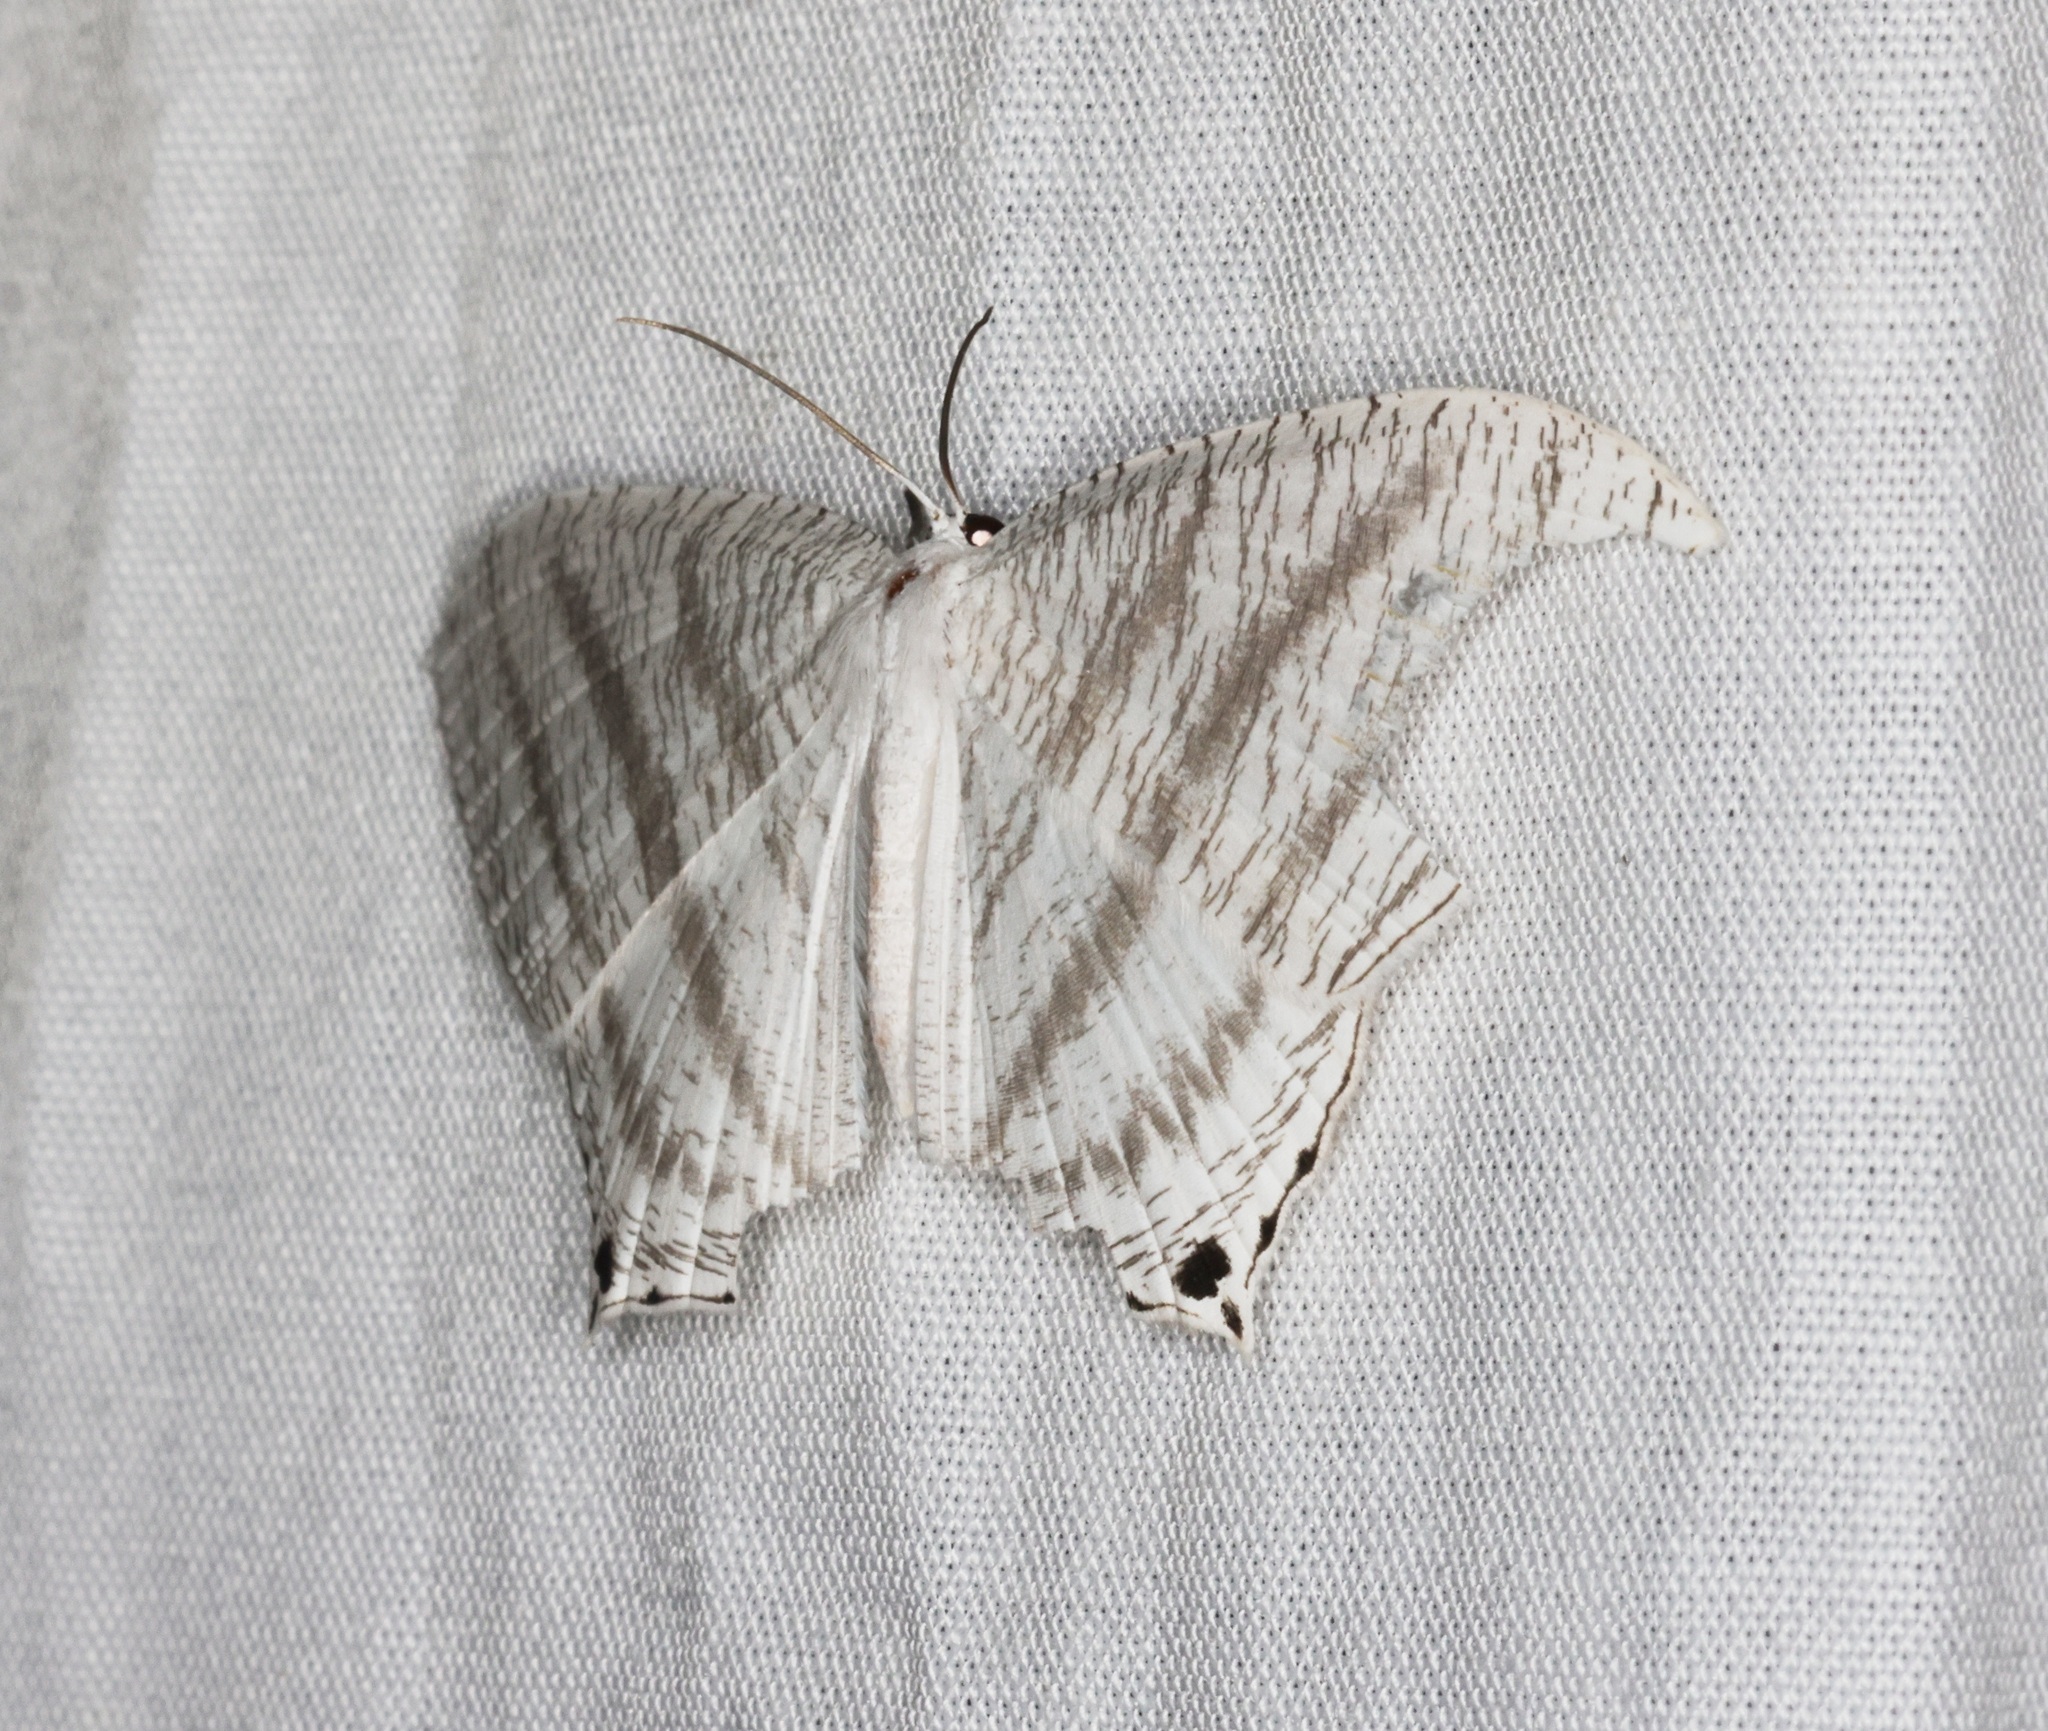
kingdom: Animalia
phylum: Arthropoda
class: Insecta
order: Lepidoptera
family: Uraniidae
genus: Micronia
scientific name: Micronia aculeata
